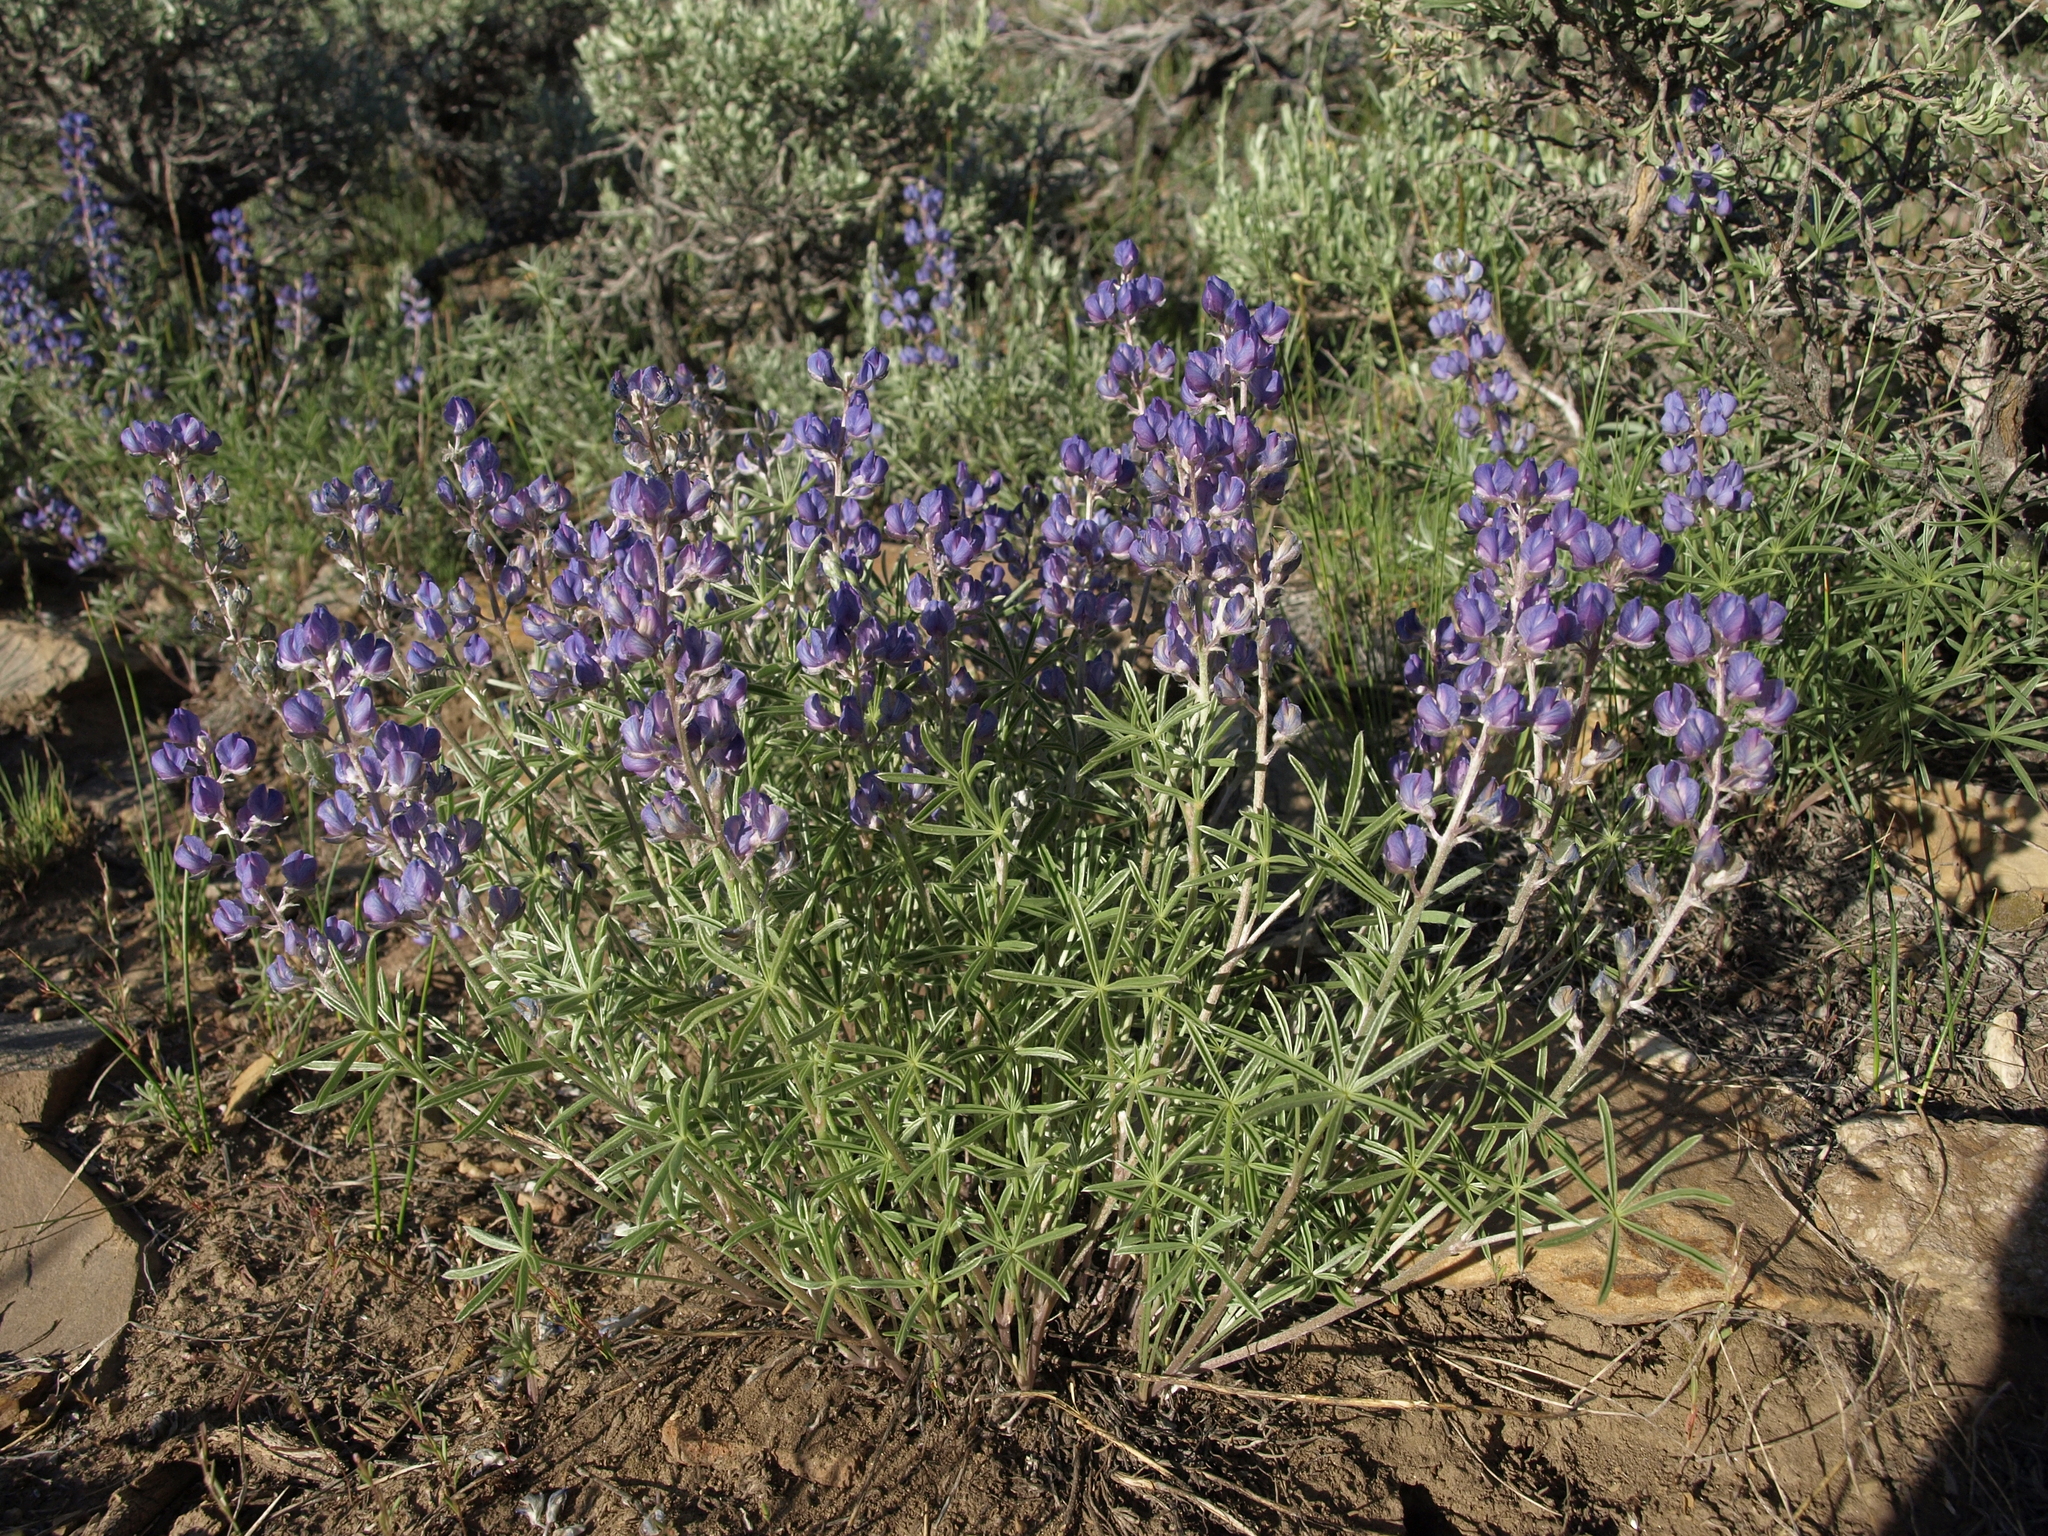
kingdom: Plantae
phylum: Tracheophyta
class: Magnoliopsida
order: Fabales
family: Fabaceae
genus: Lupinus
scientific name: Lupinus caudatus
